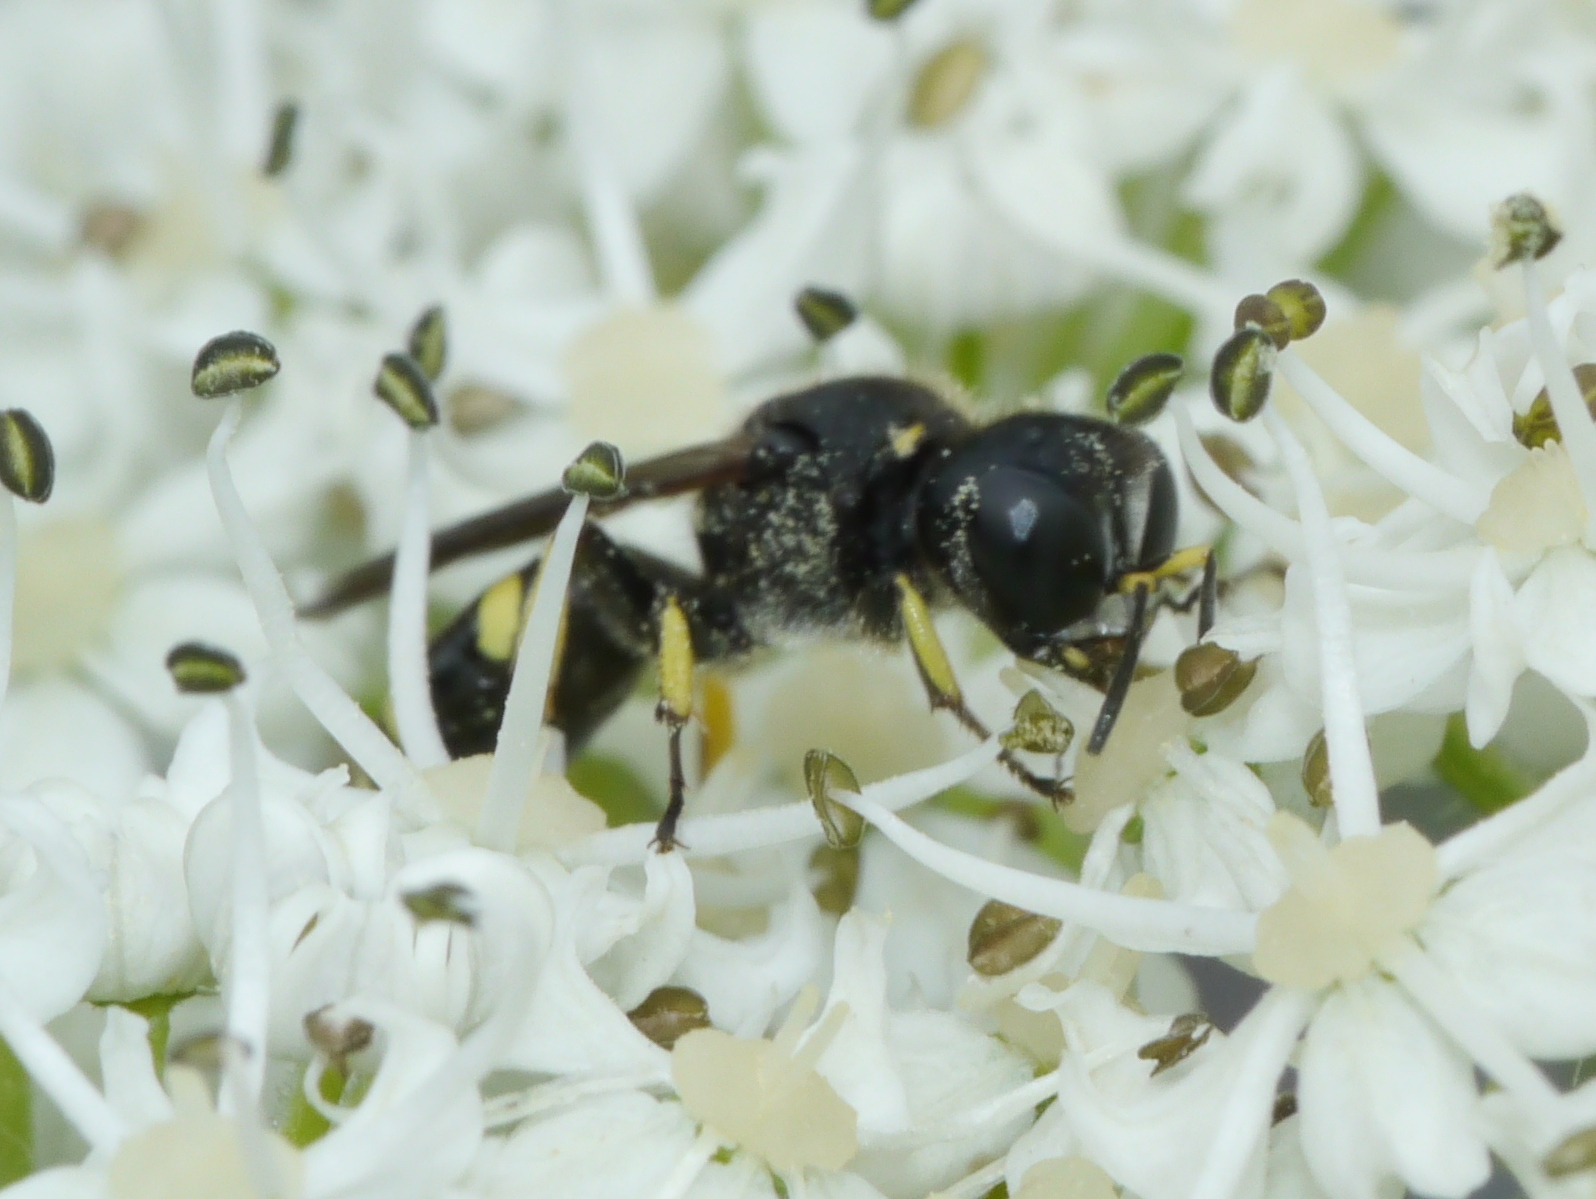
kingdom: Animalia
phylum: Arthropoda
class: Insecta
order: Hymenoptera
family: Crabronidae
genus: Ectemnius
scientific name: Ectemnius continuus
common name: Common ectemnius
